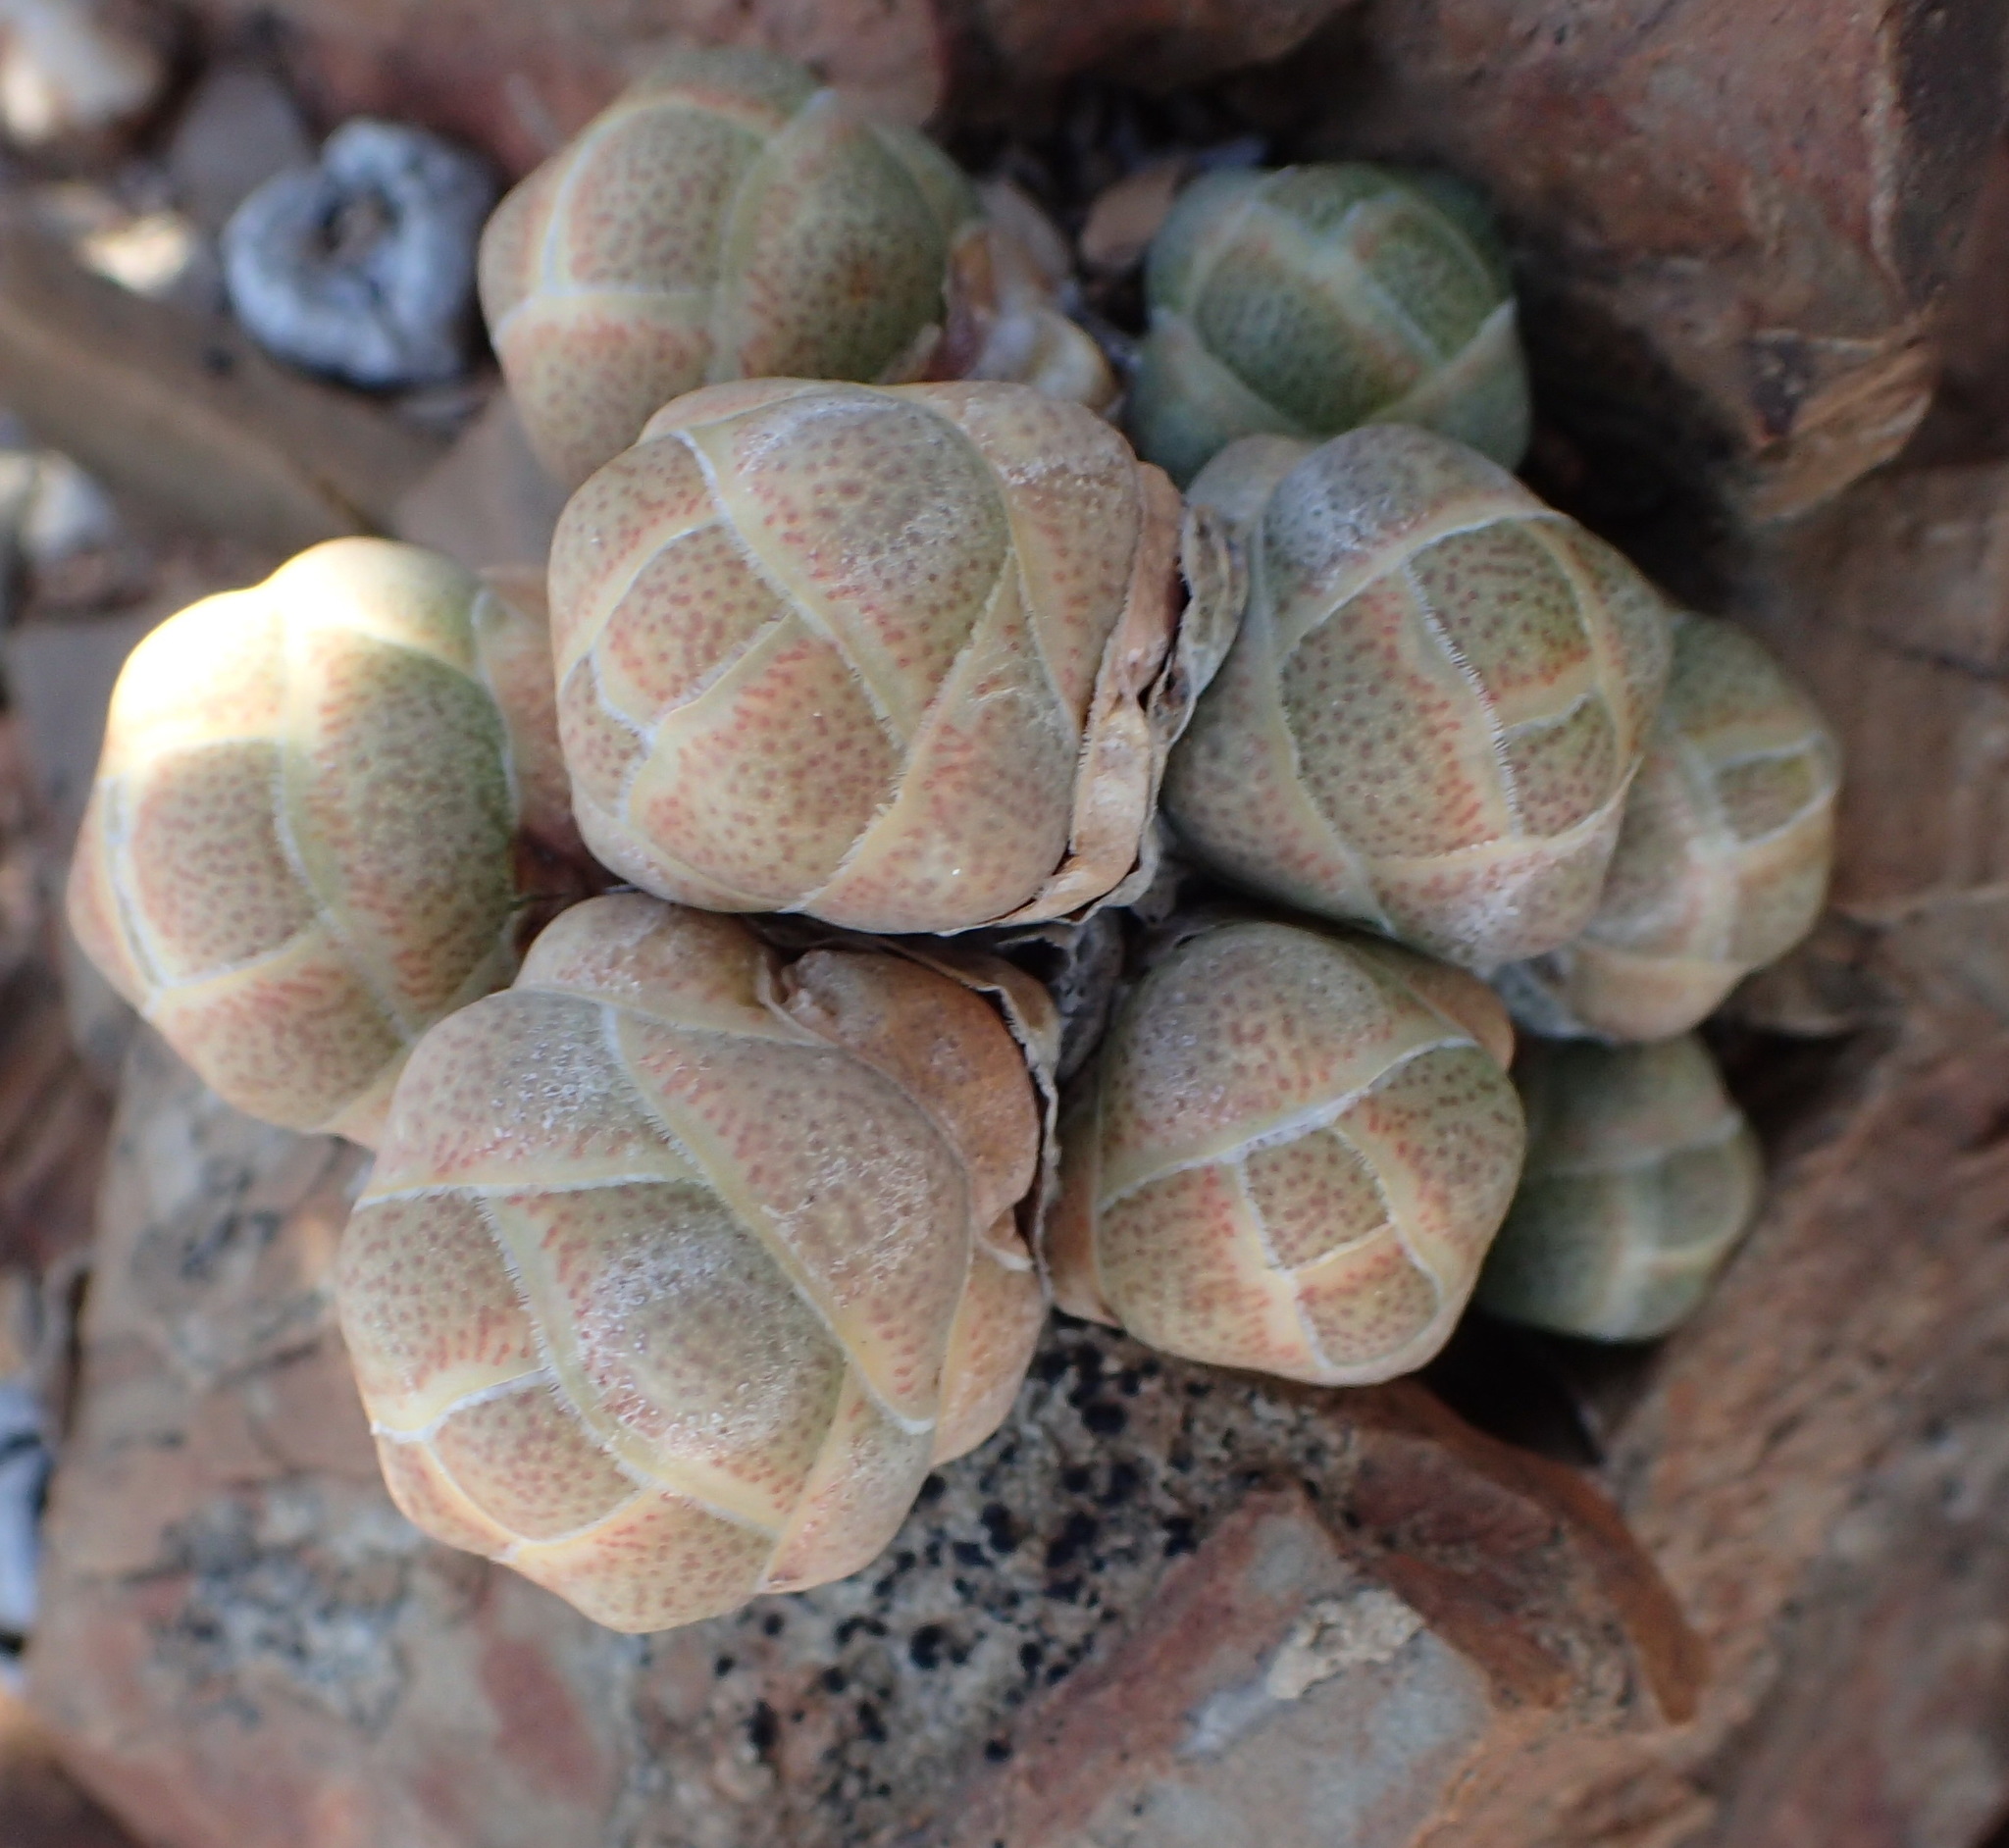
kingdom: Plantae
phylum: Tracheophyta
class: Magnoliopsida
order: Saxifragales
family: Crassulaceae
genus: Crassula
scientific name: Crassula barklyi
